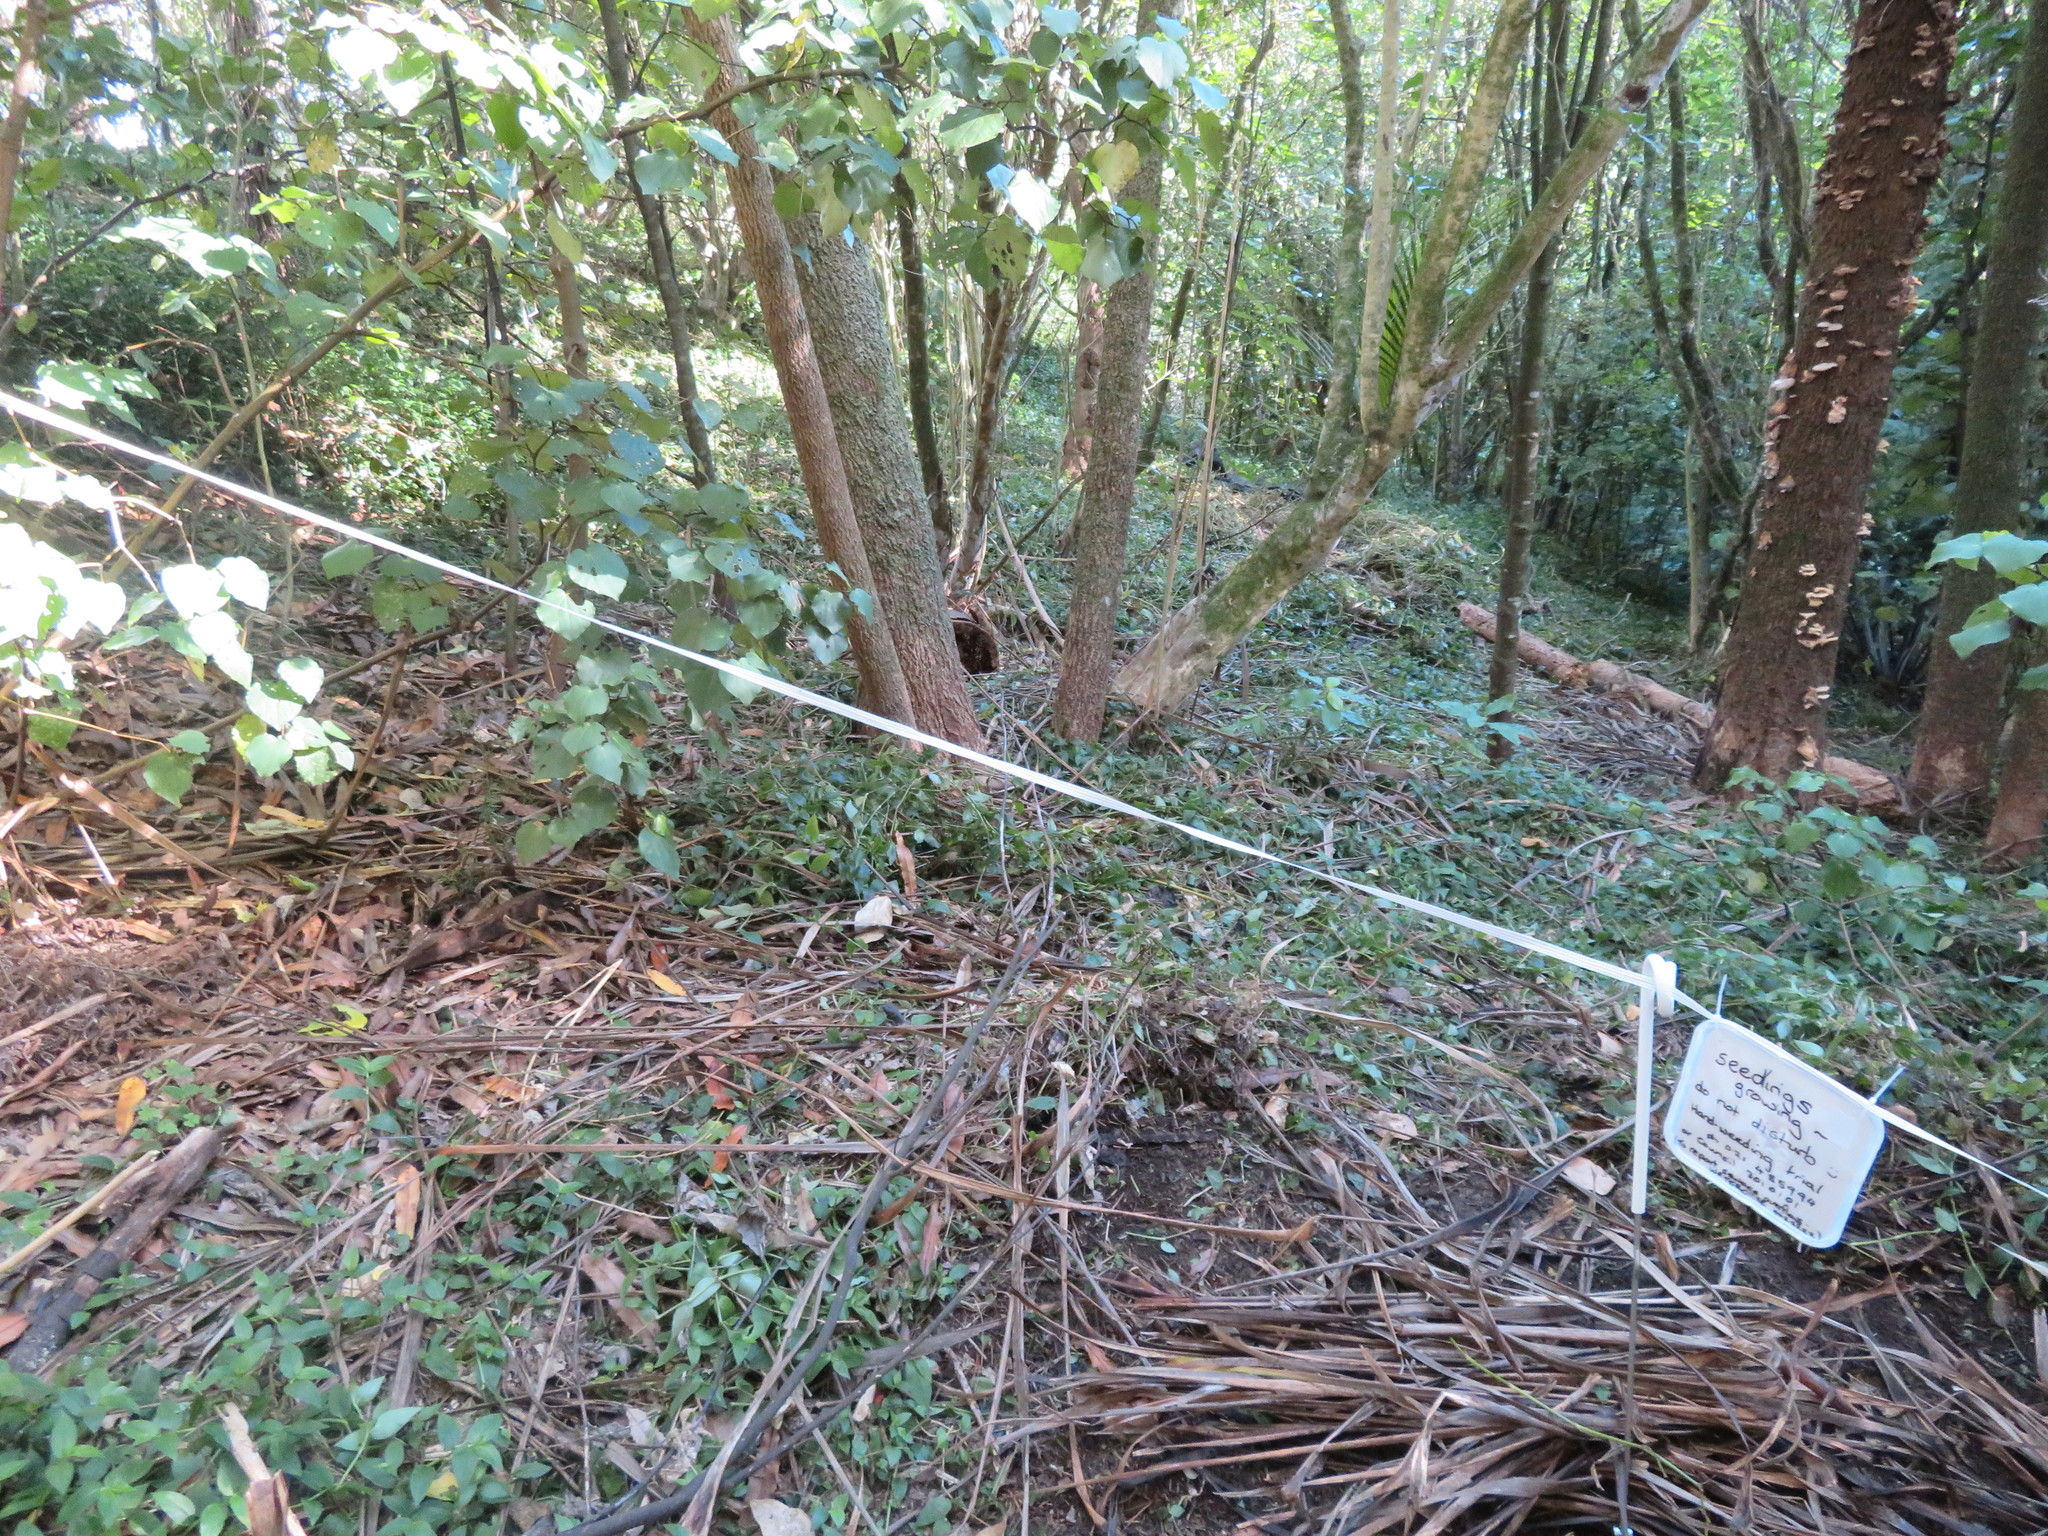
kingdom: Plantae
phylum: Tracheophyta
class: Liliopsida
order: Commelinales
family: Commelinaceae
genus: Tradescantia
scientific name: Tradescantia fluminensis
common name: Wandering-jew
